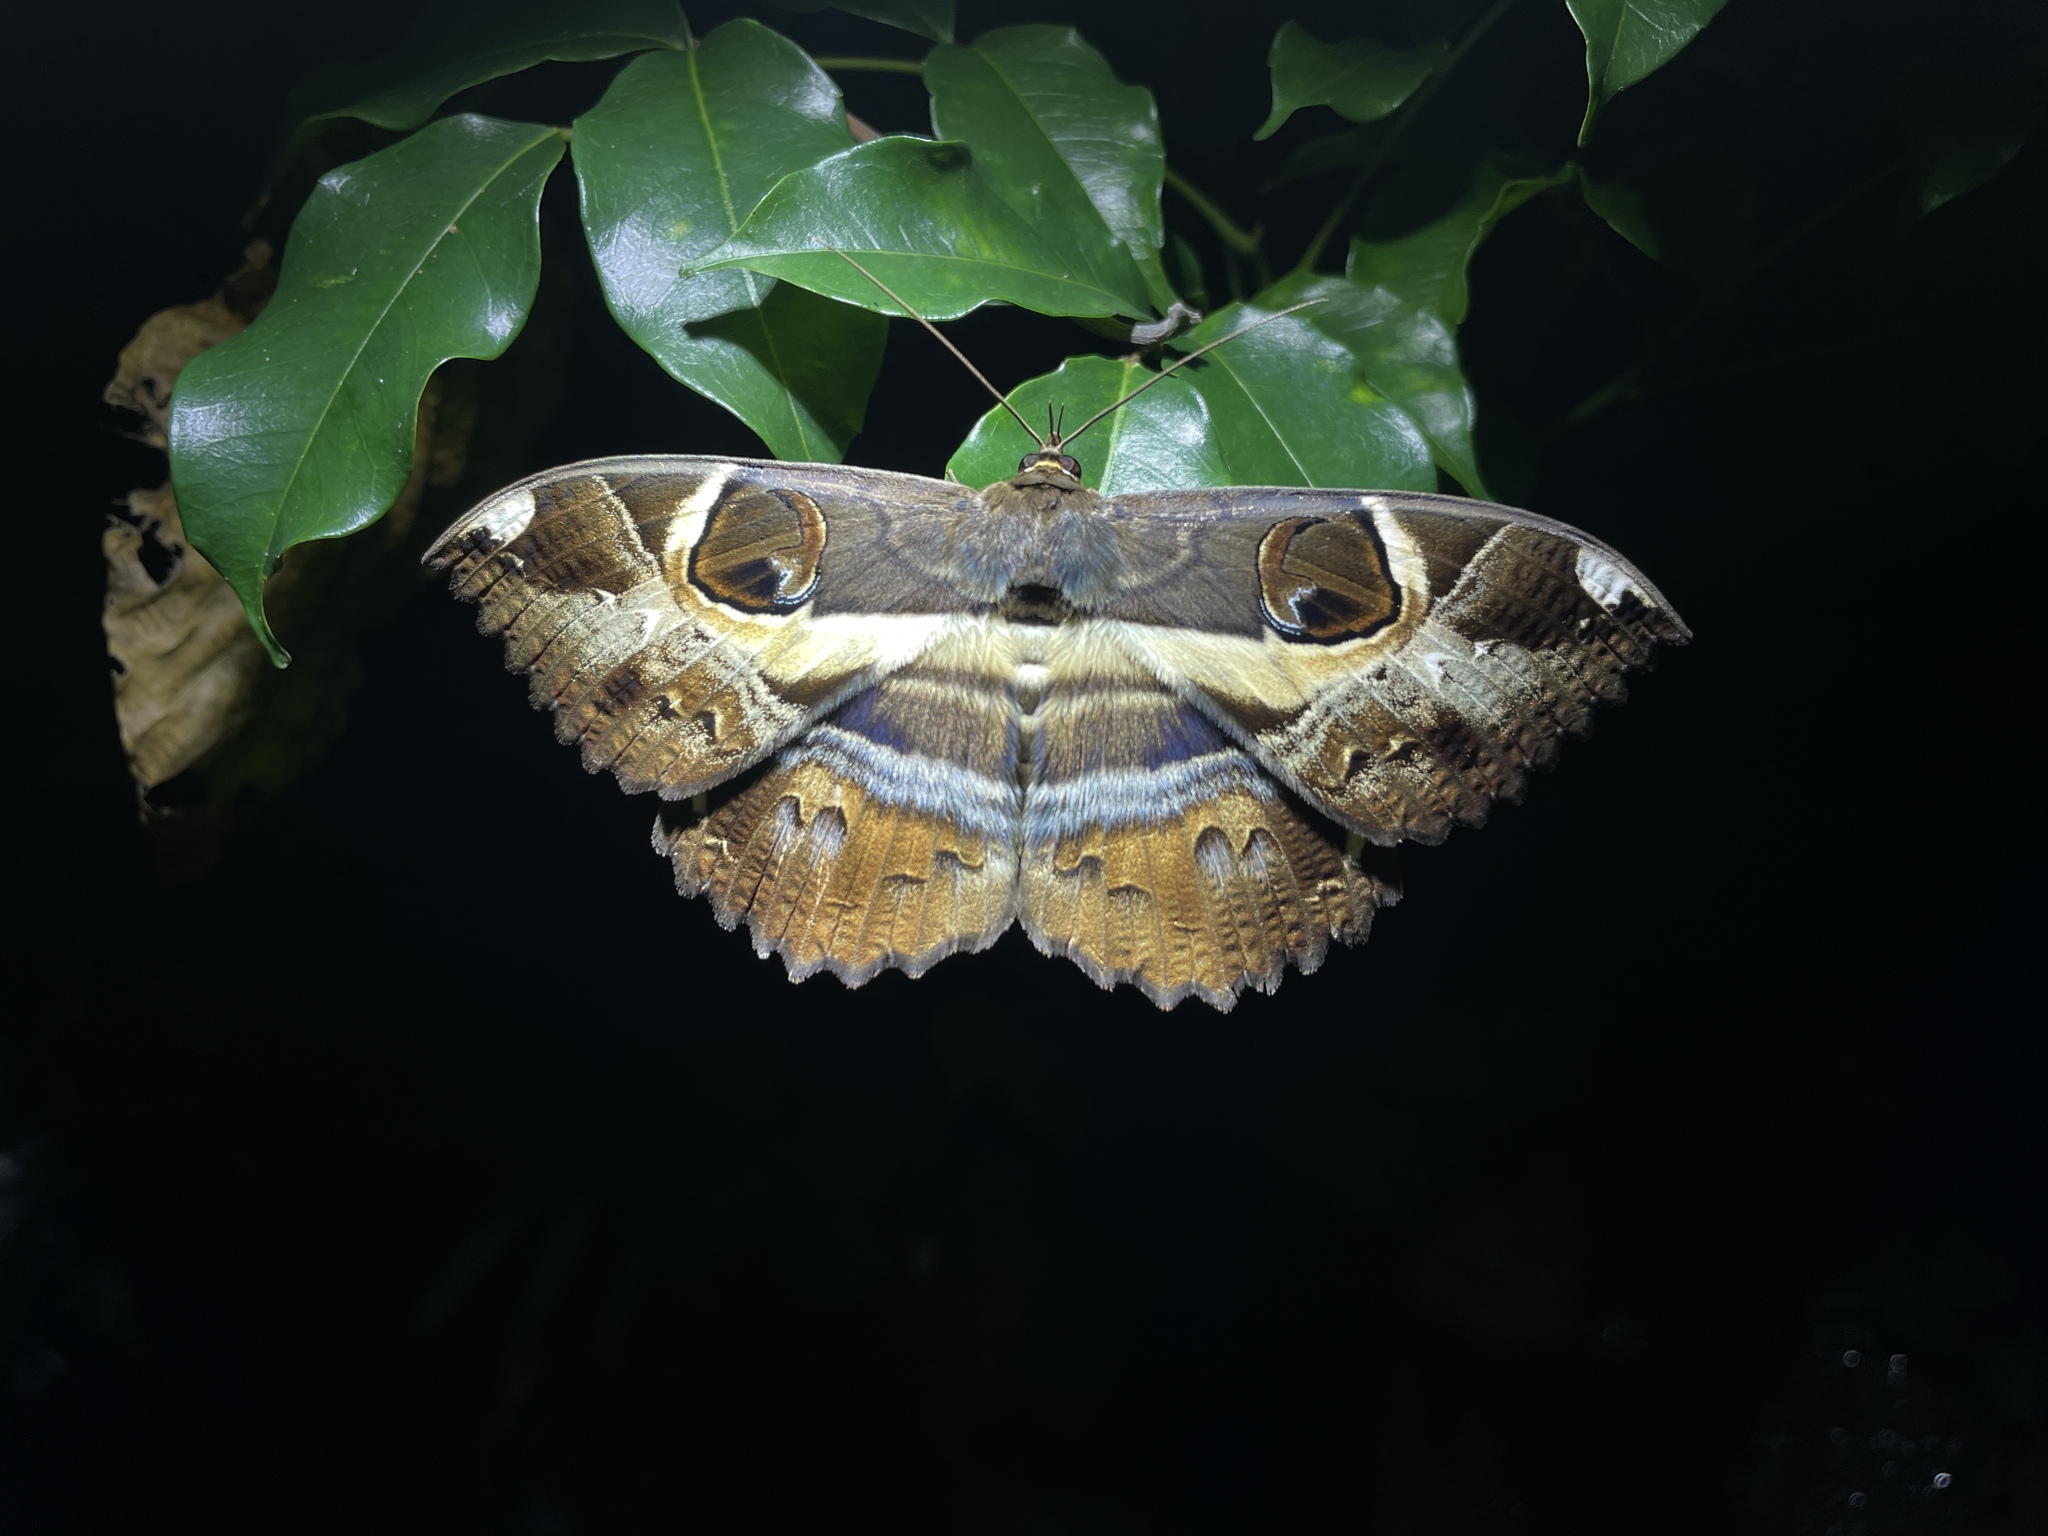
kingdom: Animalia
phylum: Arthropoda
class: Insecta
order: Lepidoptera
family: Erebidae
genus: Erebus
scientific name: Erebus ephesperis
